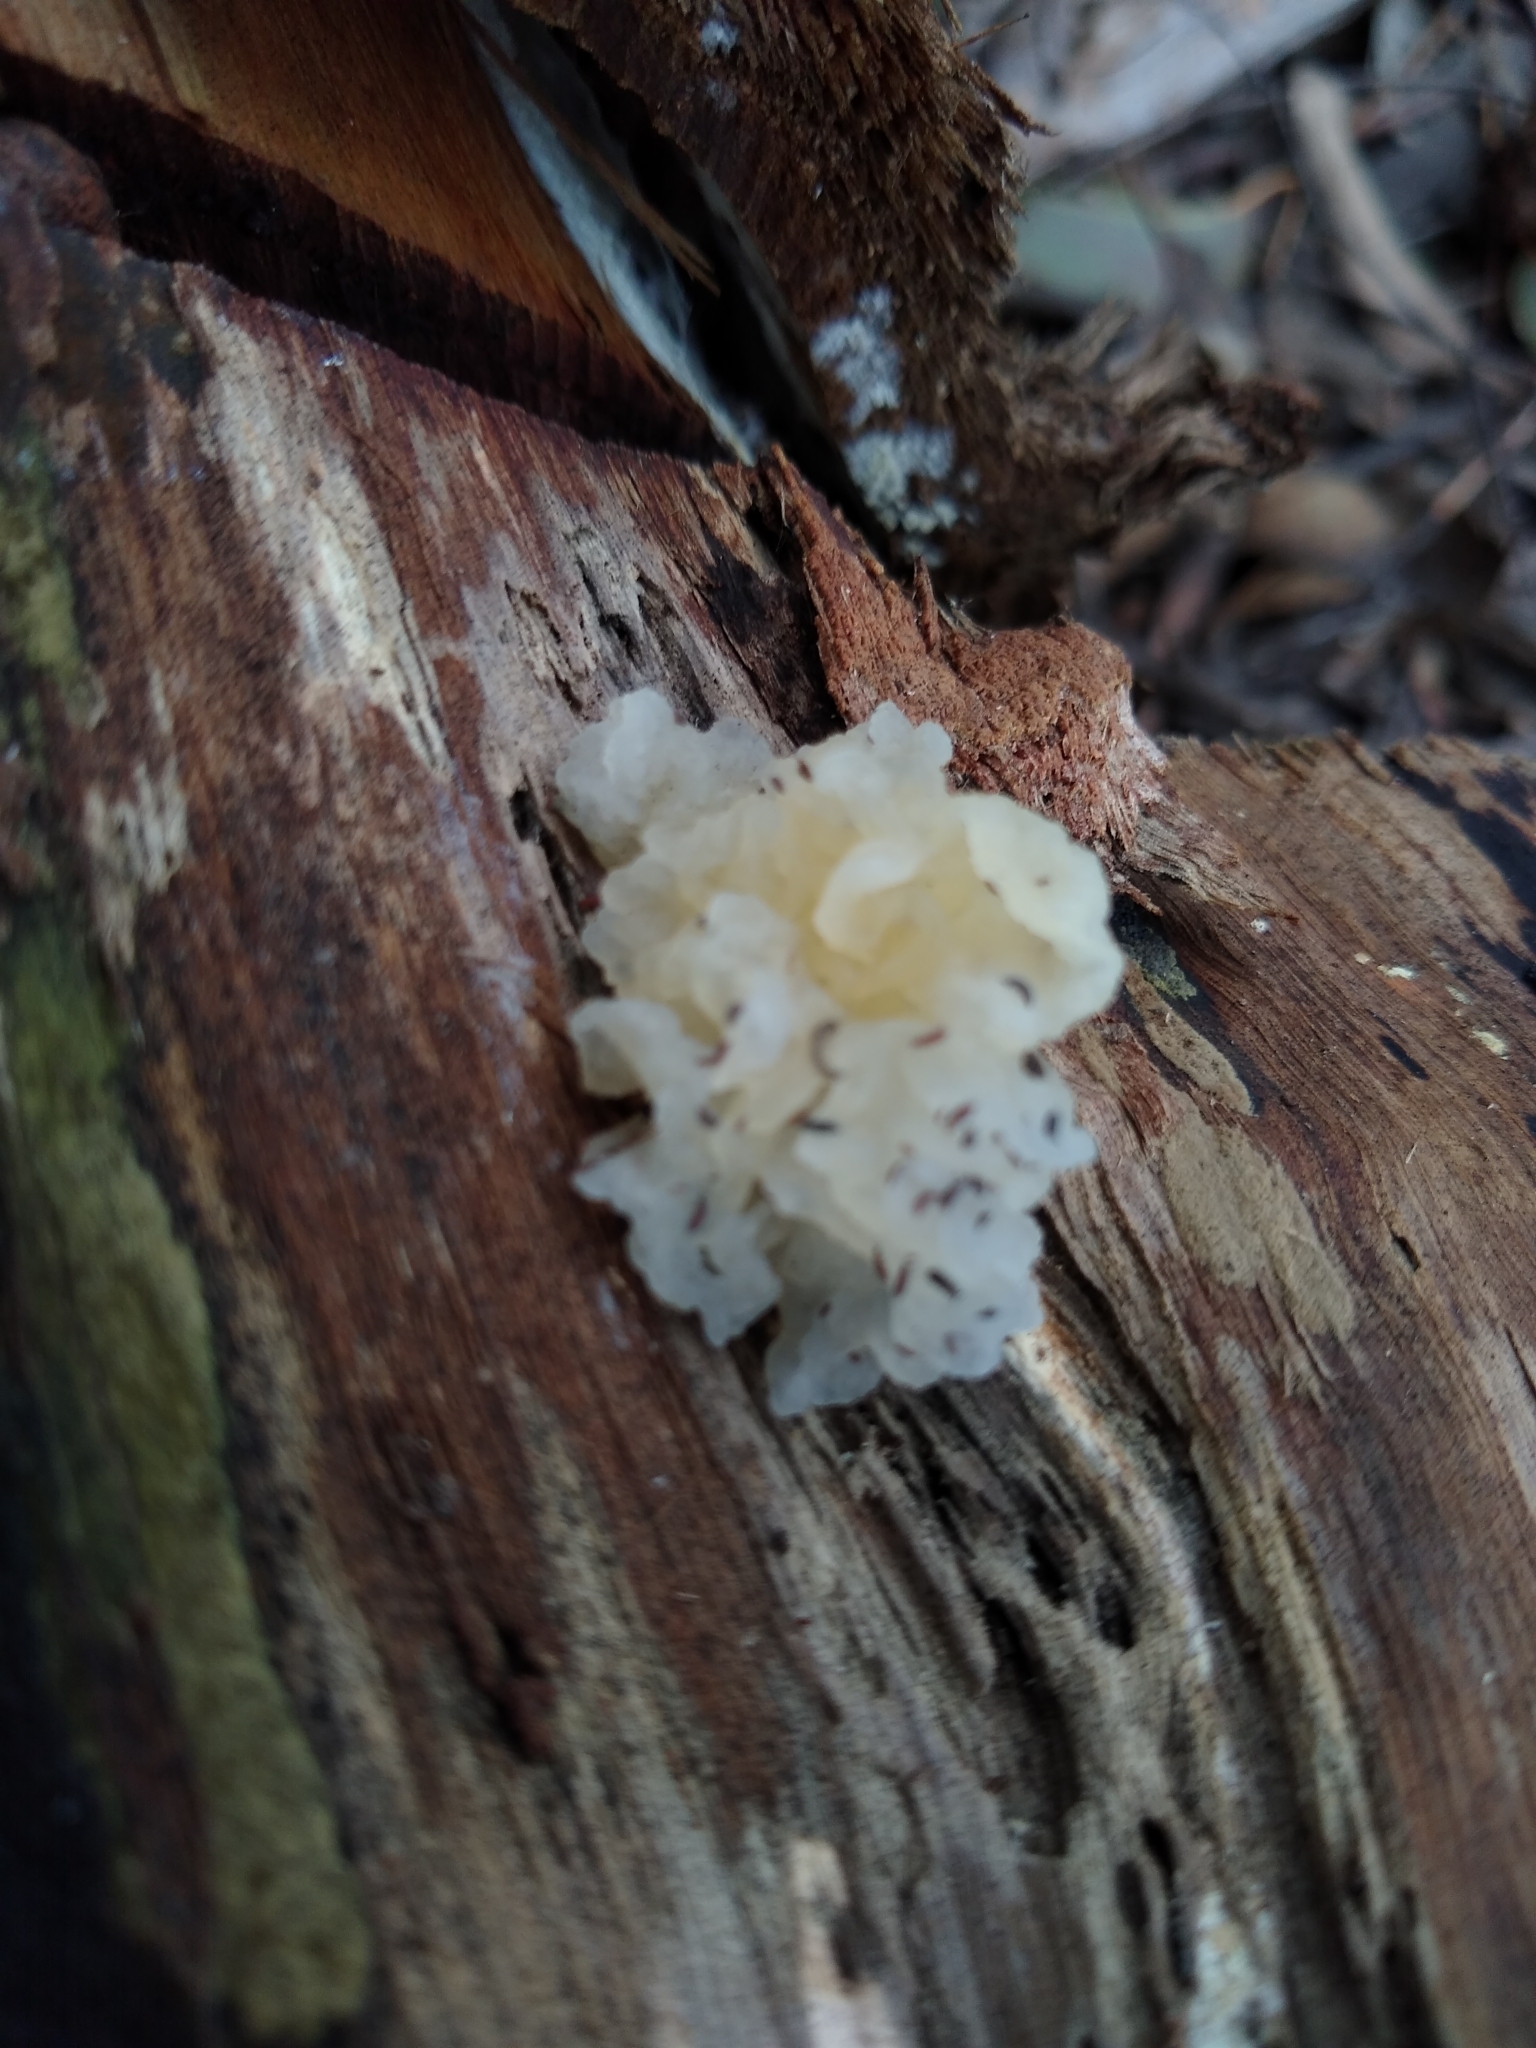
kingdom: Fungi
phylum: Basidiomycota
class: Tremellomycetes
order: Tremellales
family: Tremellaceae
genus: Tremella
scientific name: Tremella fuciformis
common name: Snow fungus
